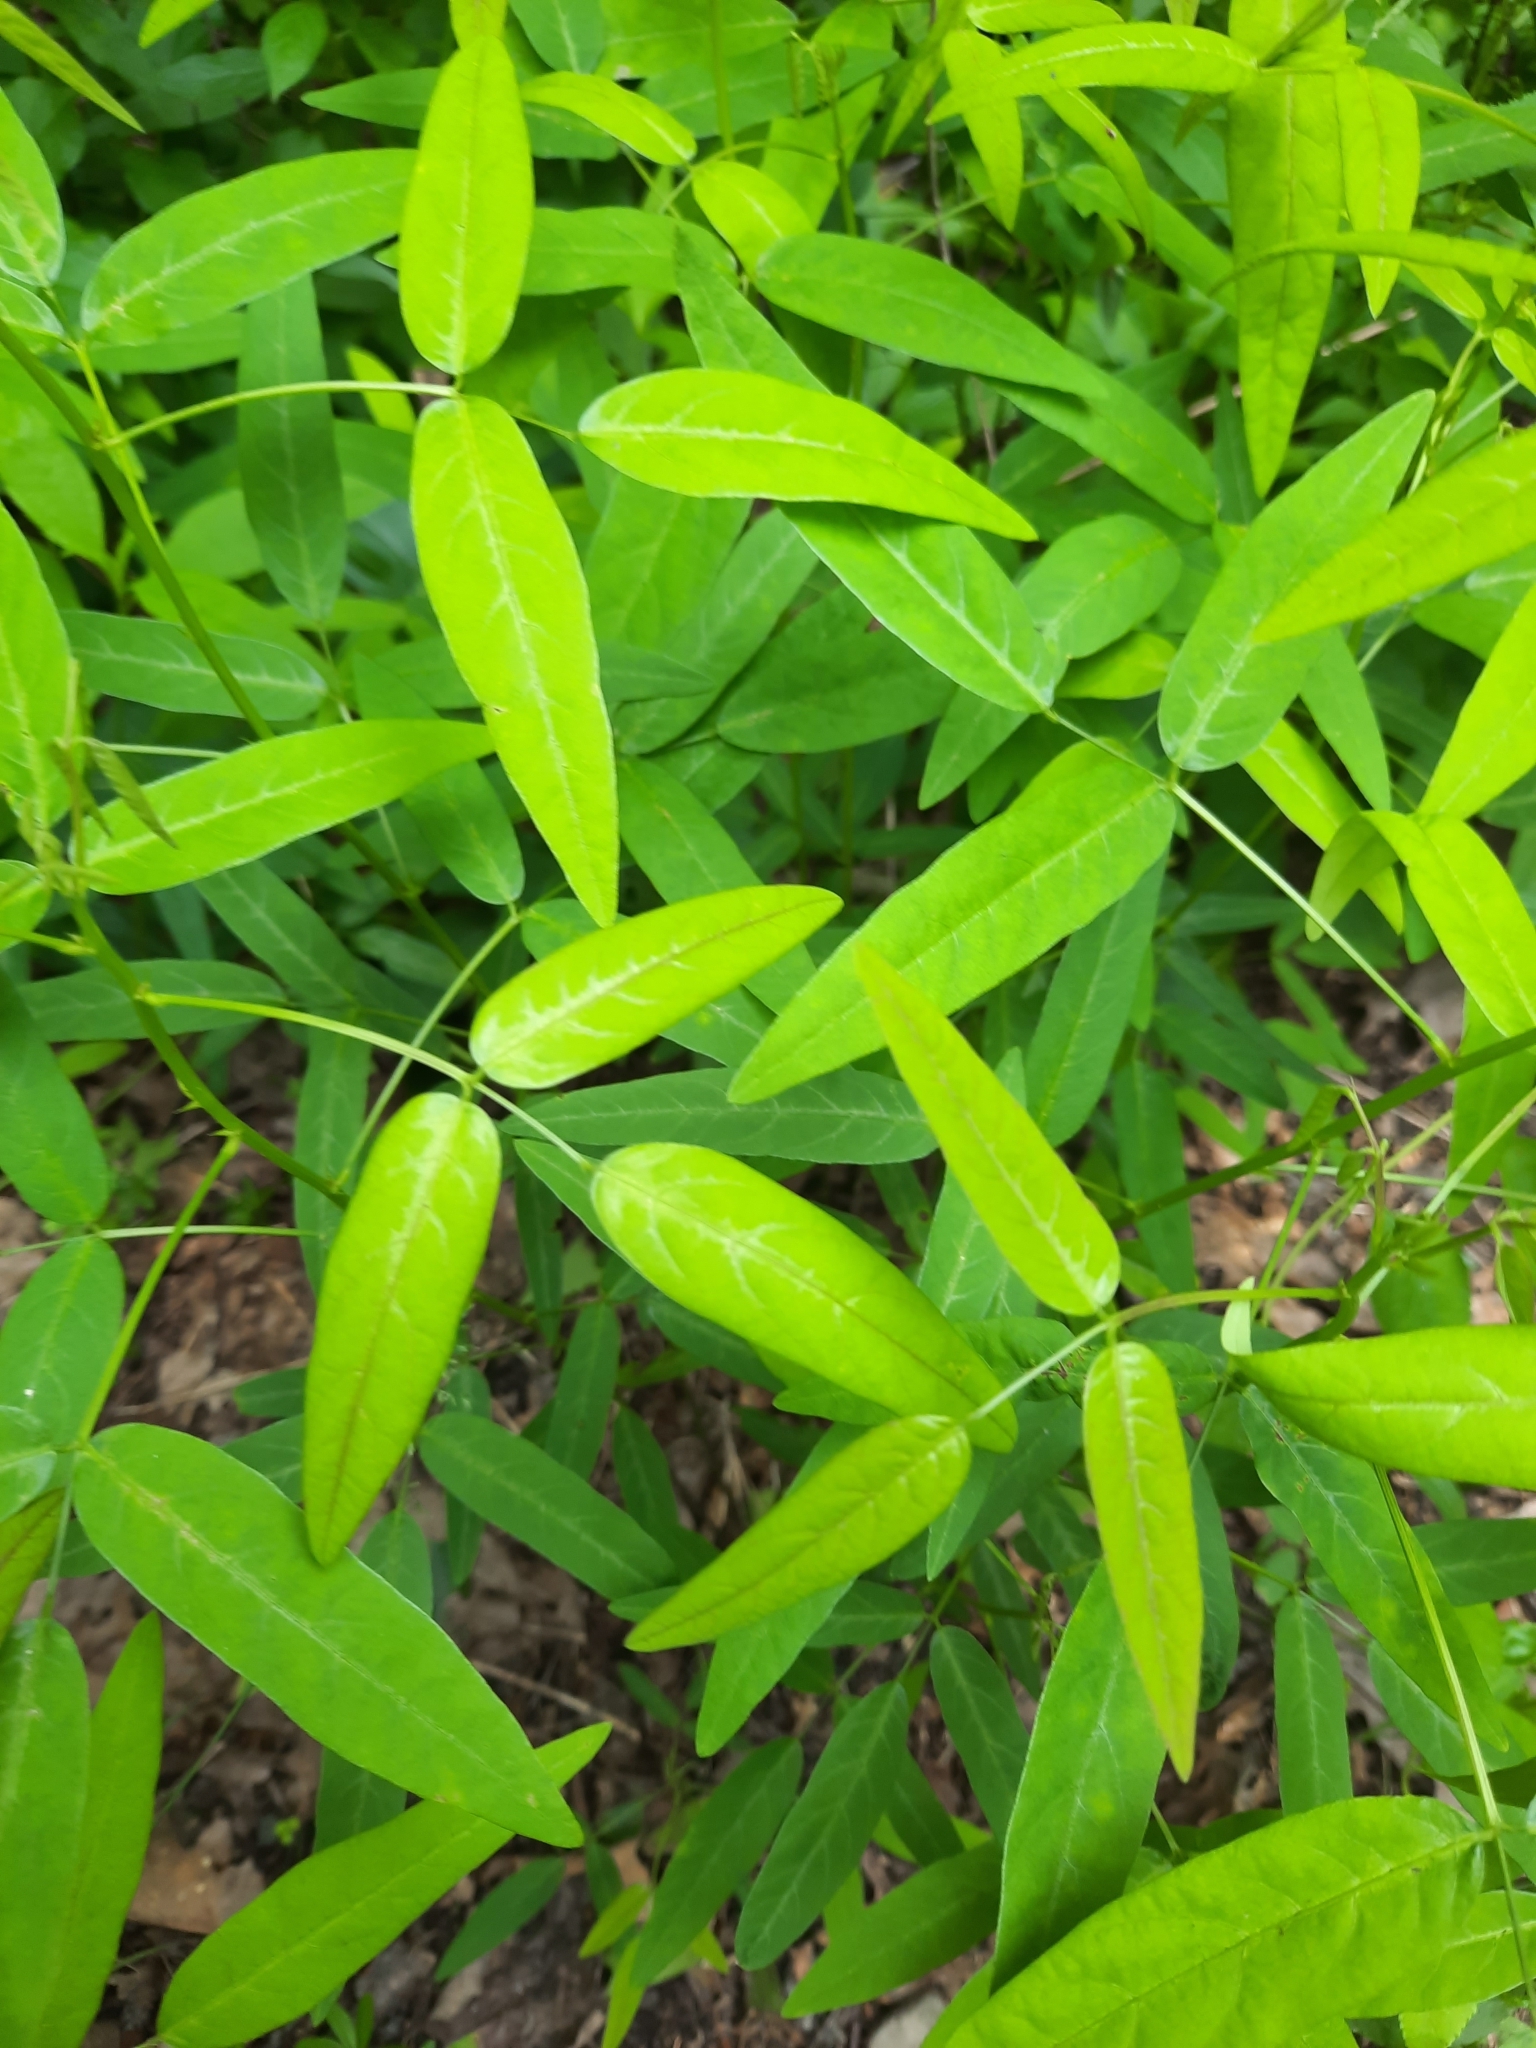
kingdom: Plantae
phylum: Tracheophyta
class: Magnoliopsida
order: Fabales
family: Fabaceae
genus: Desmodium
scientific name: Desmodium paniculatum
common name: Panicled tick-clover
